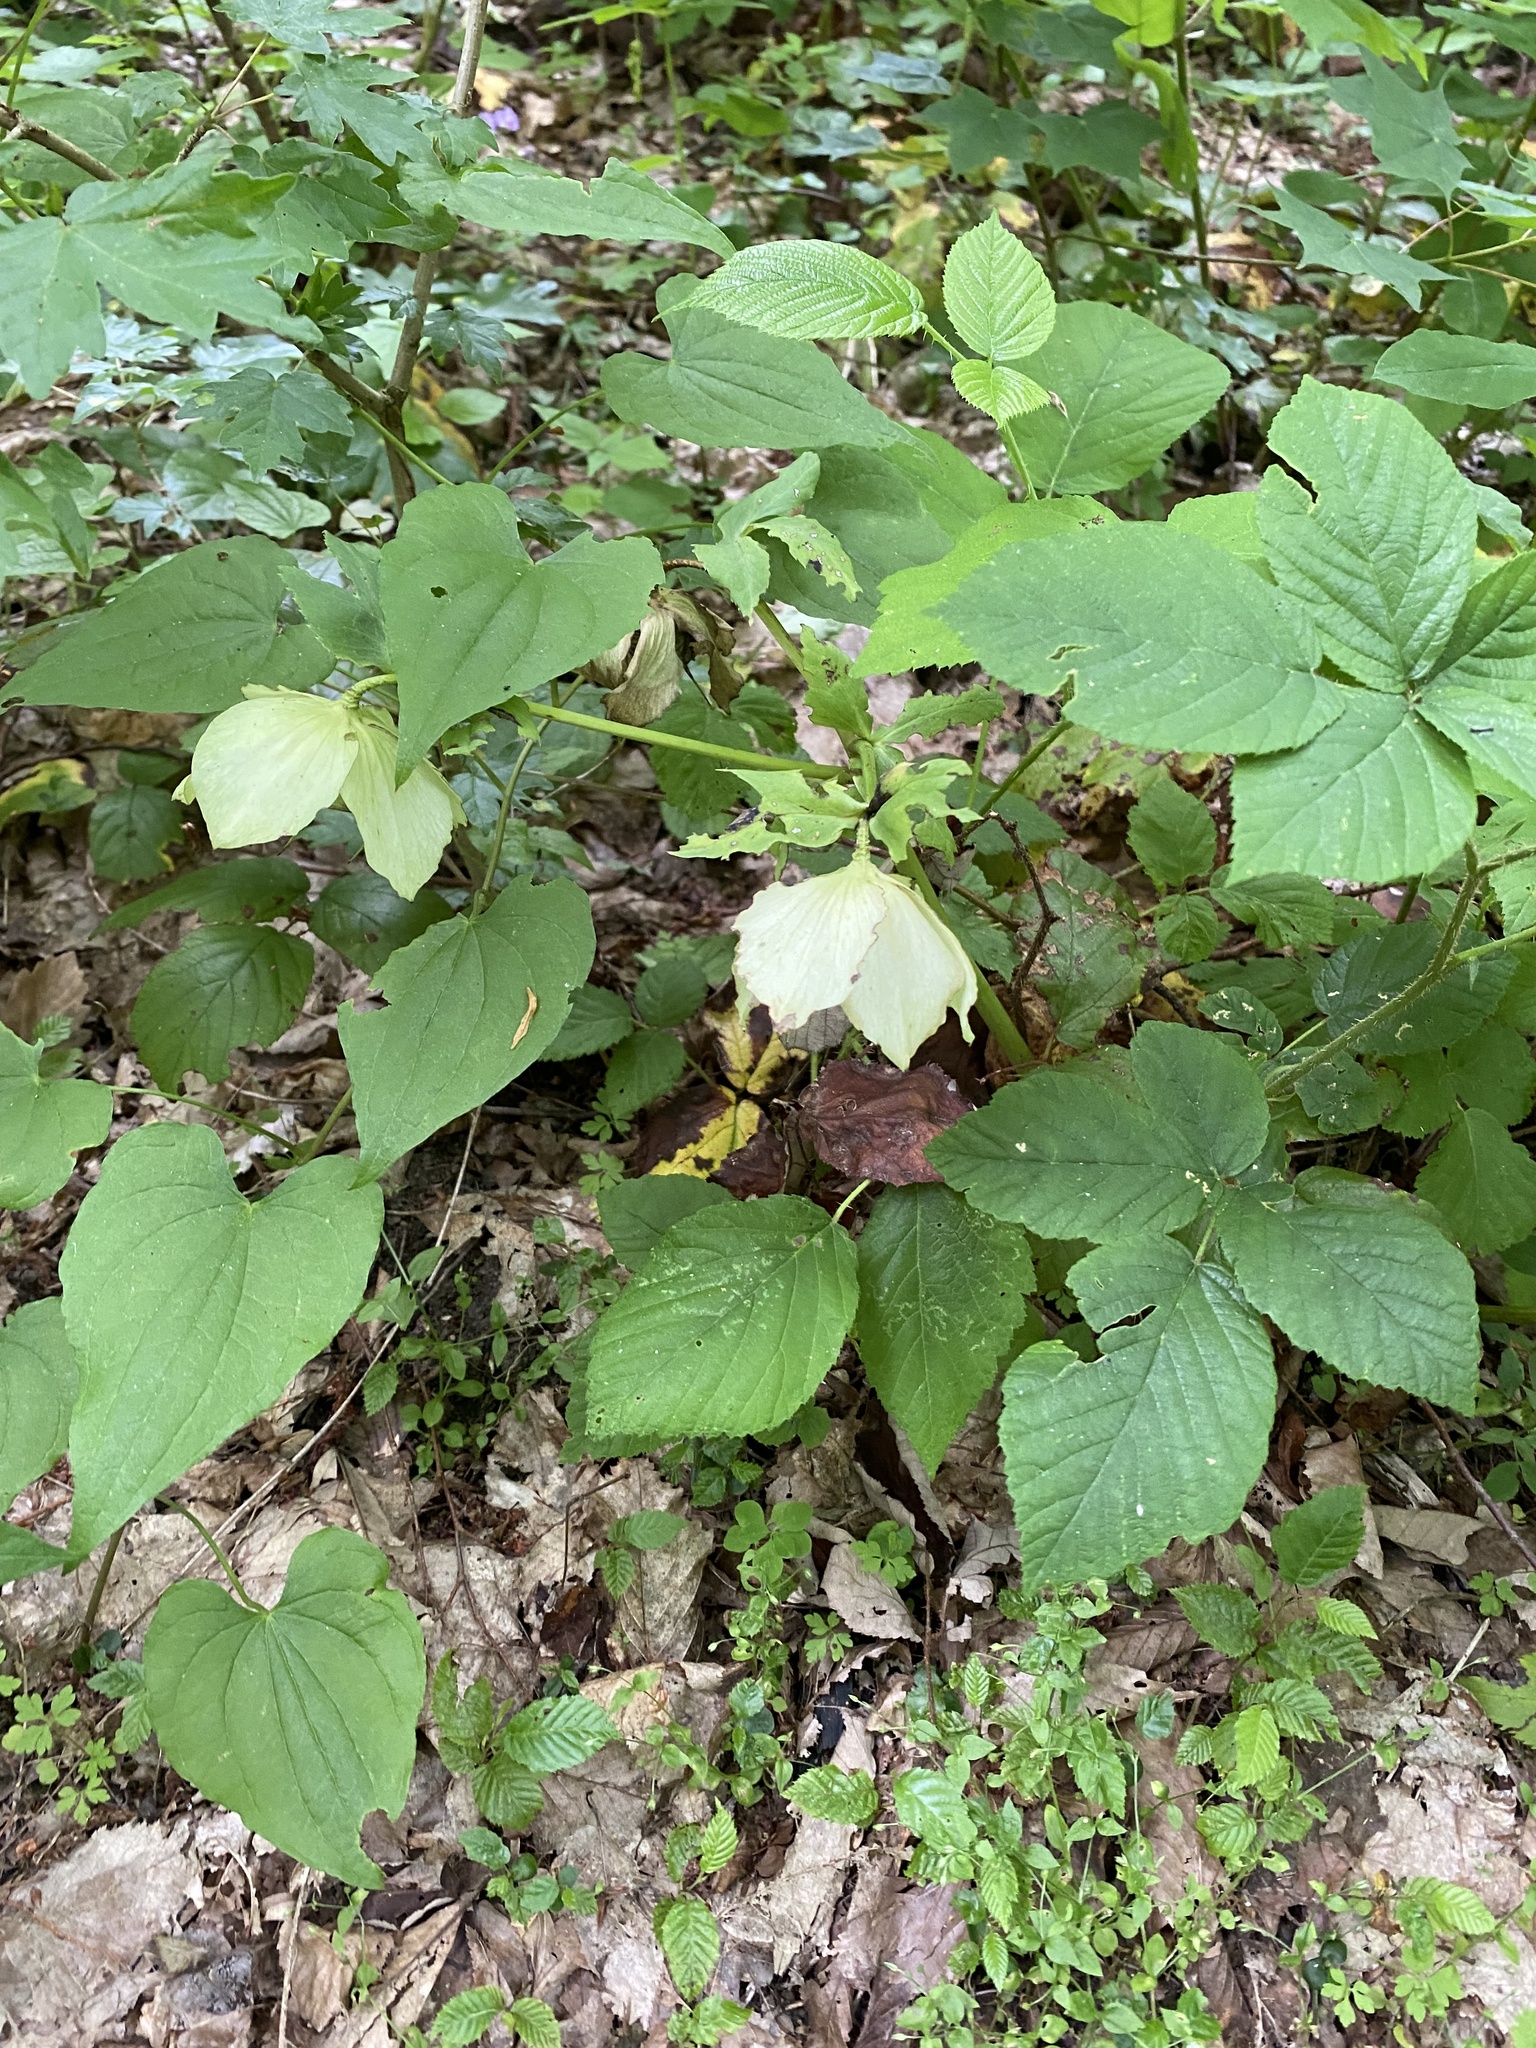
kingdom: Plantae
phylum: Tracheophyta
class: Magnoliopsida
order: Ranunculales
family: Ranunculaceae
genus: Helleborus
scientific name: Helleborus orientalis
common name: Lenten-rose
